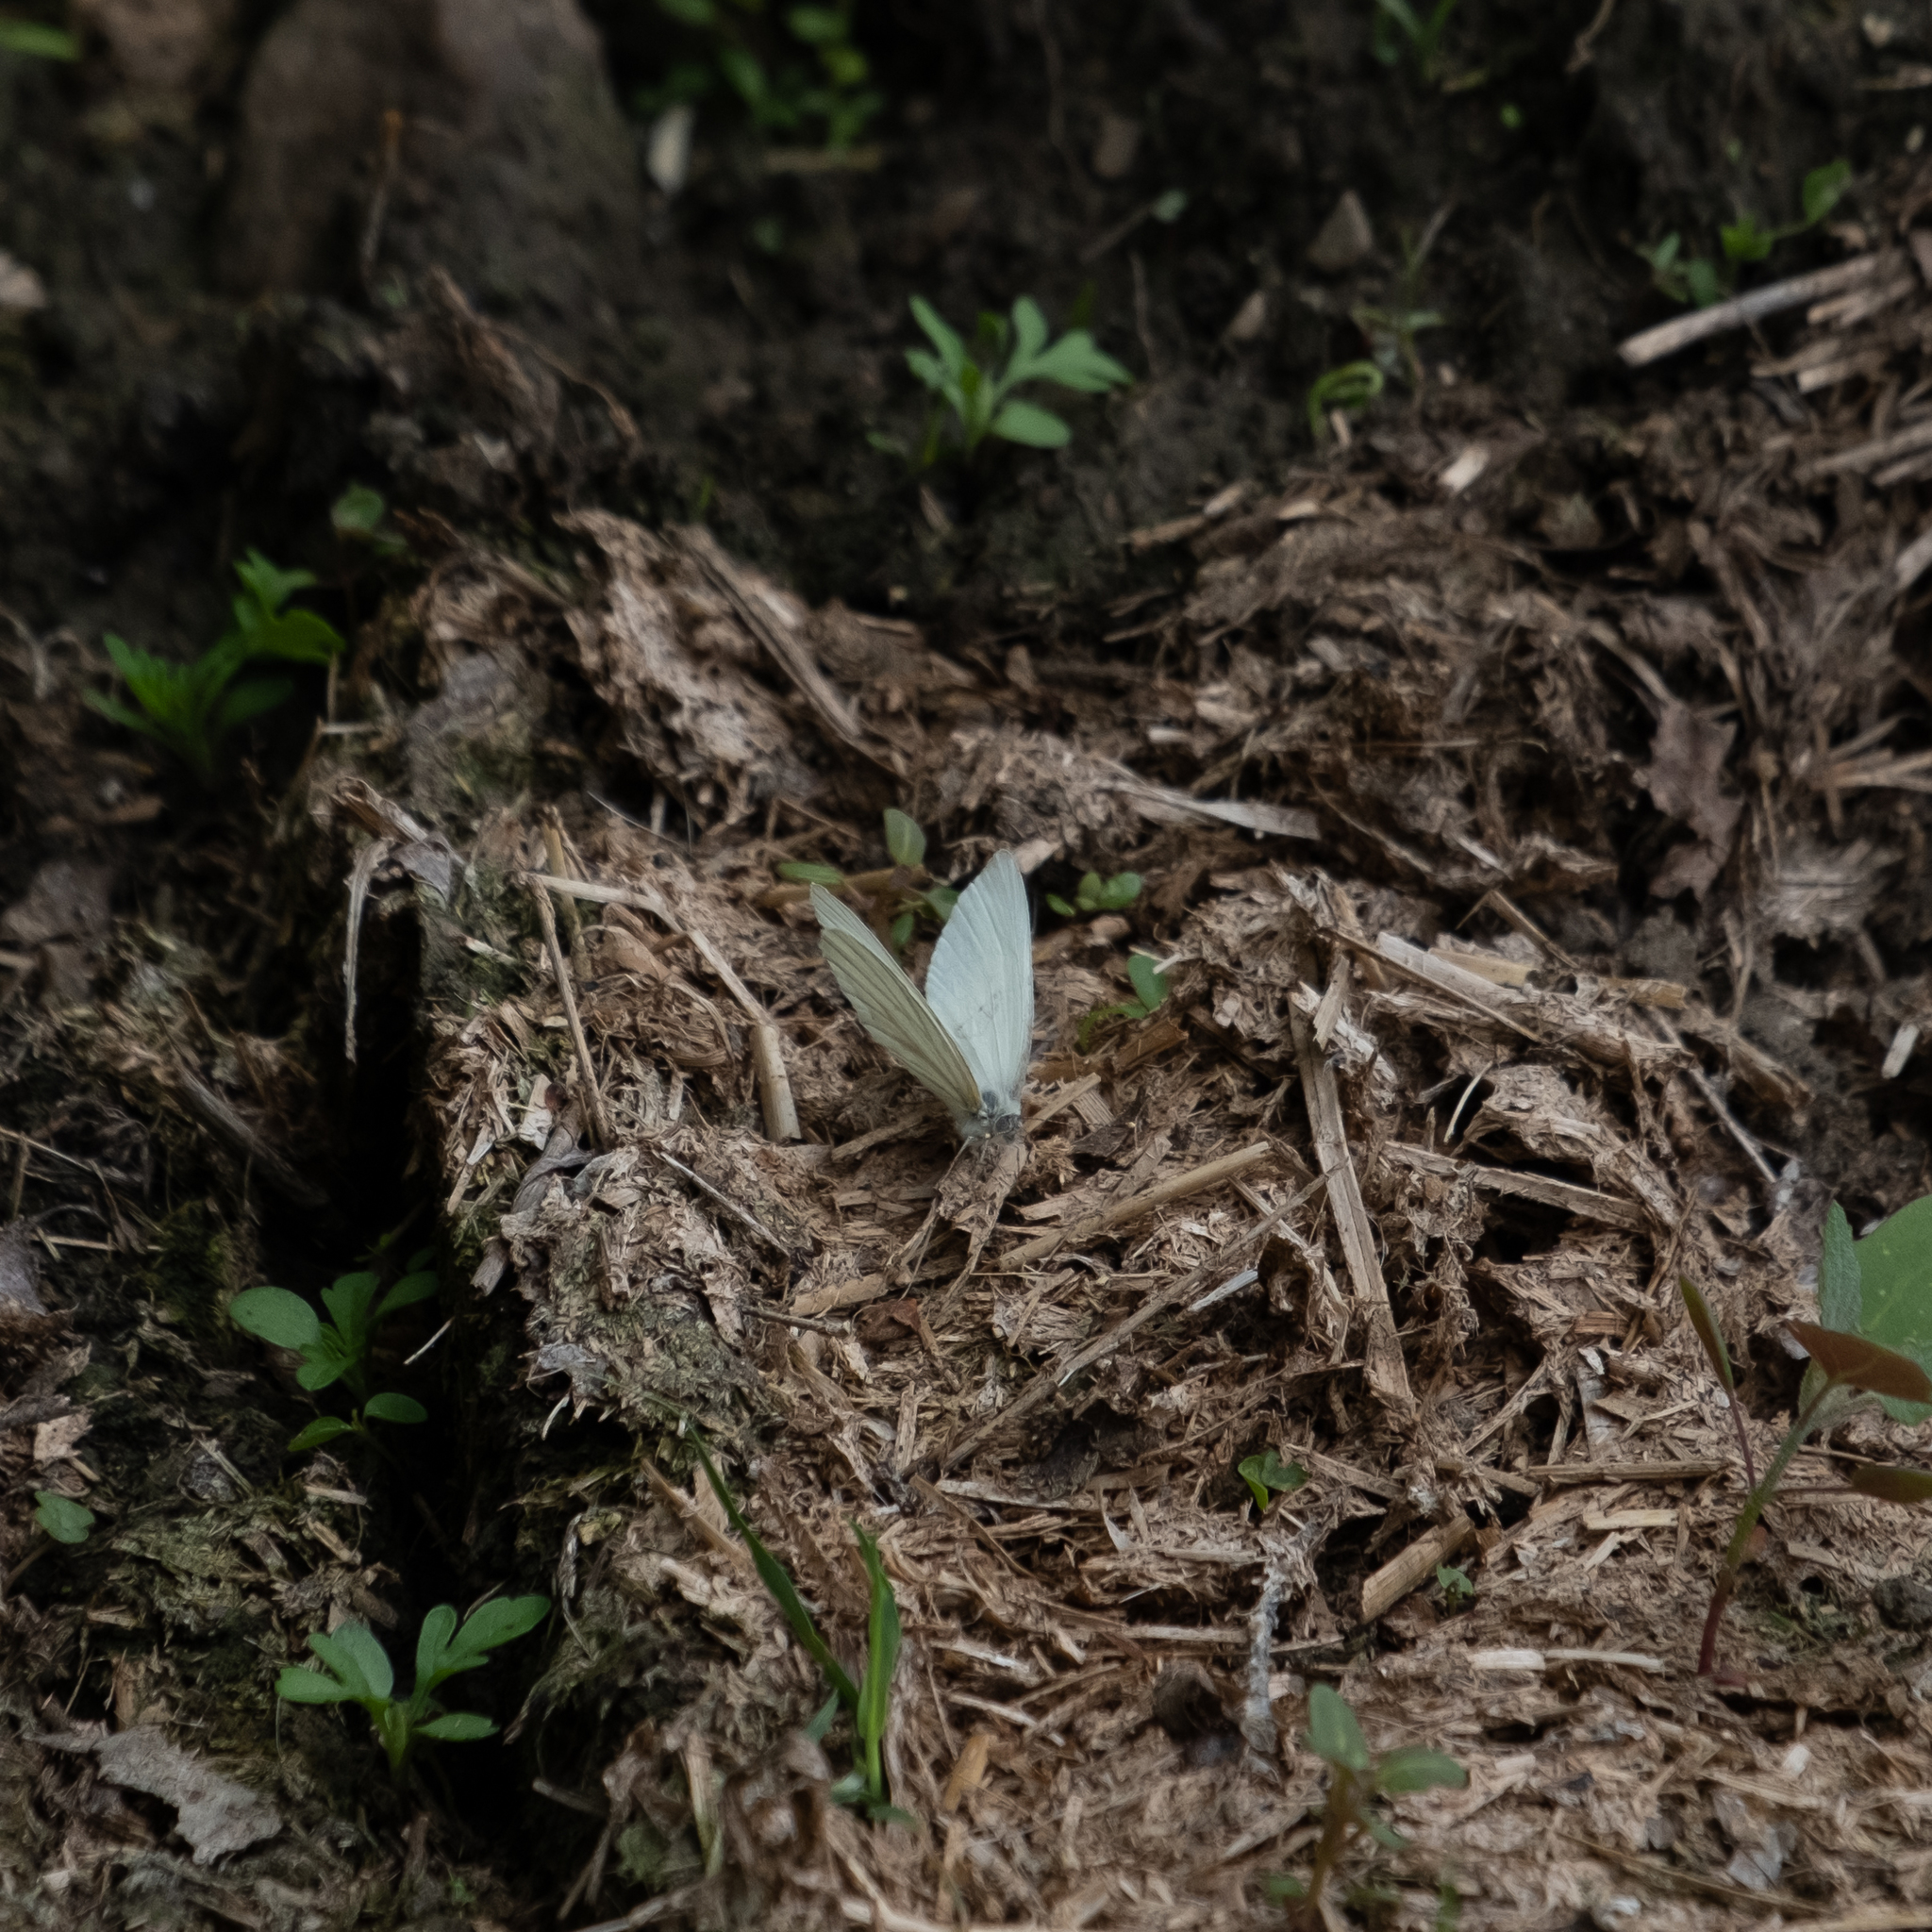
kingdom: Animalia
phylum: Arthropoda
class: Insecta
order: Lepidoptera
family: Pieridae
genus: Pieris
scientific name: Pieris oleracea
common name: Mustard white
